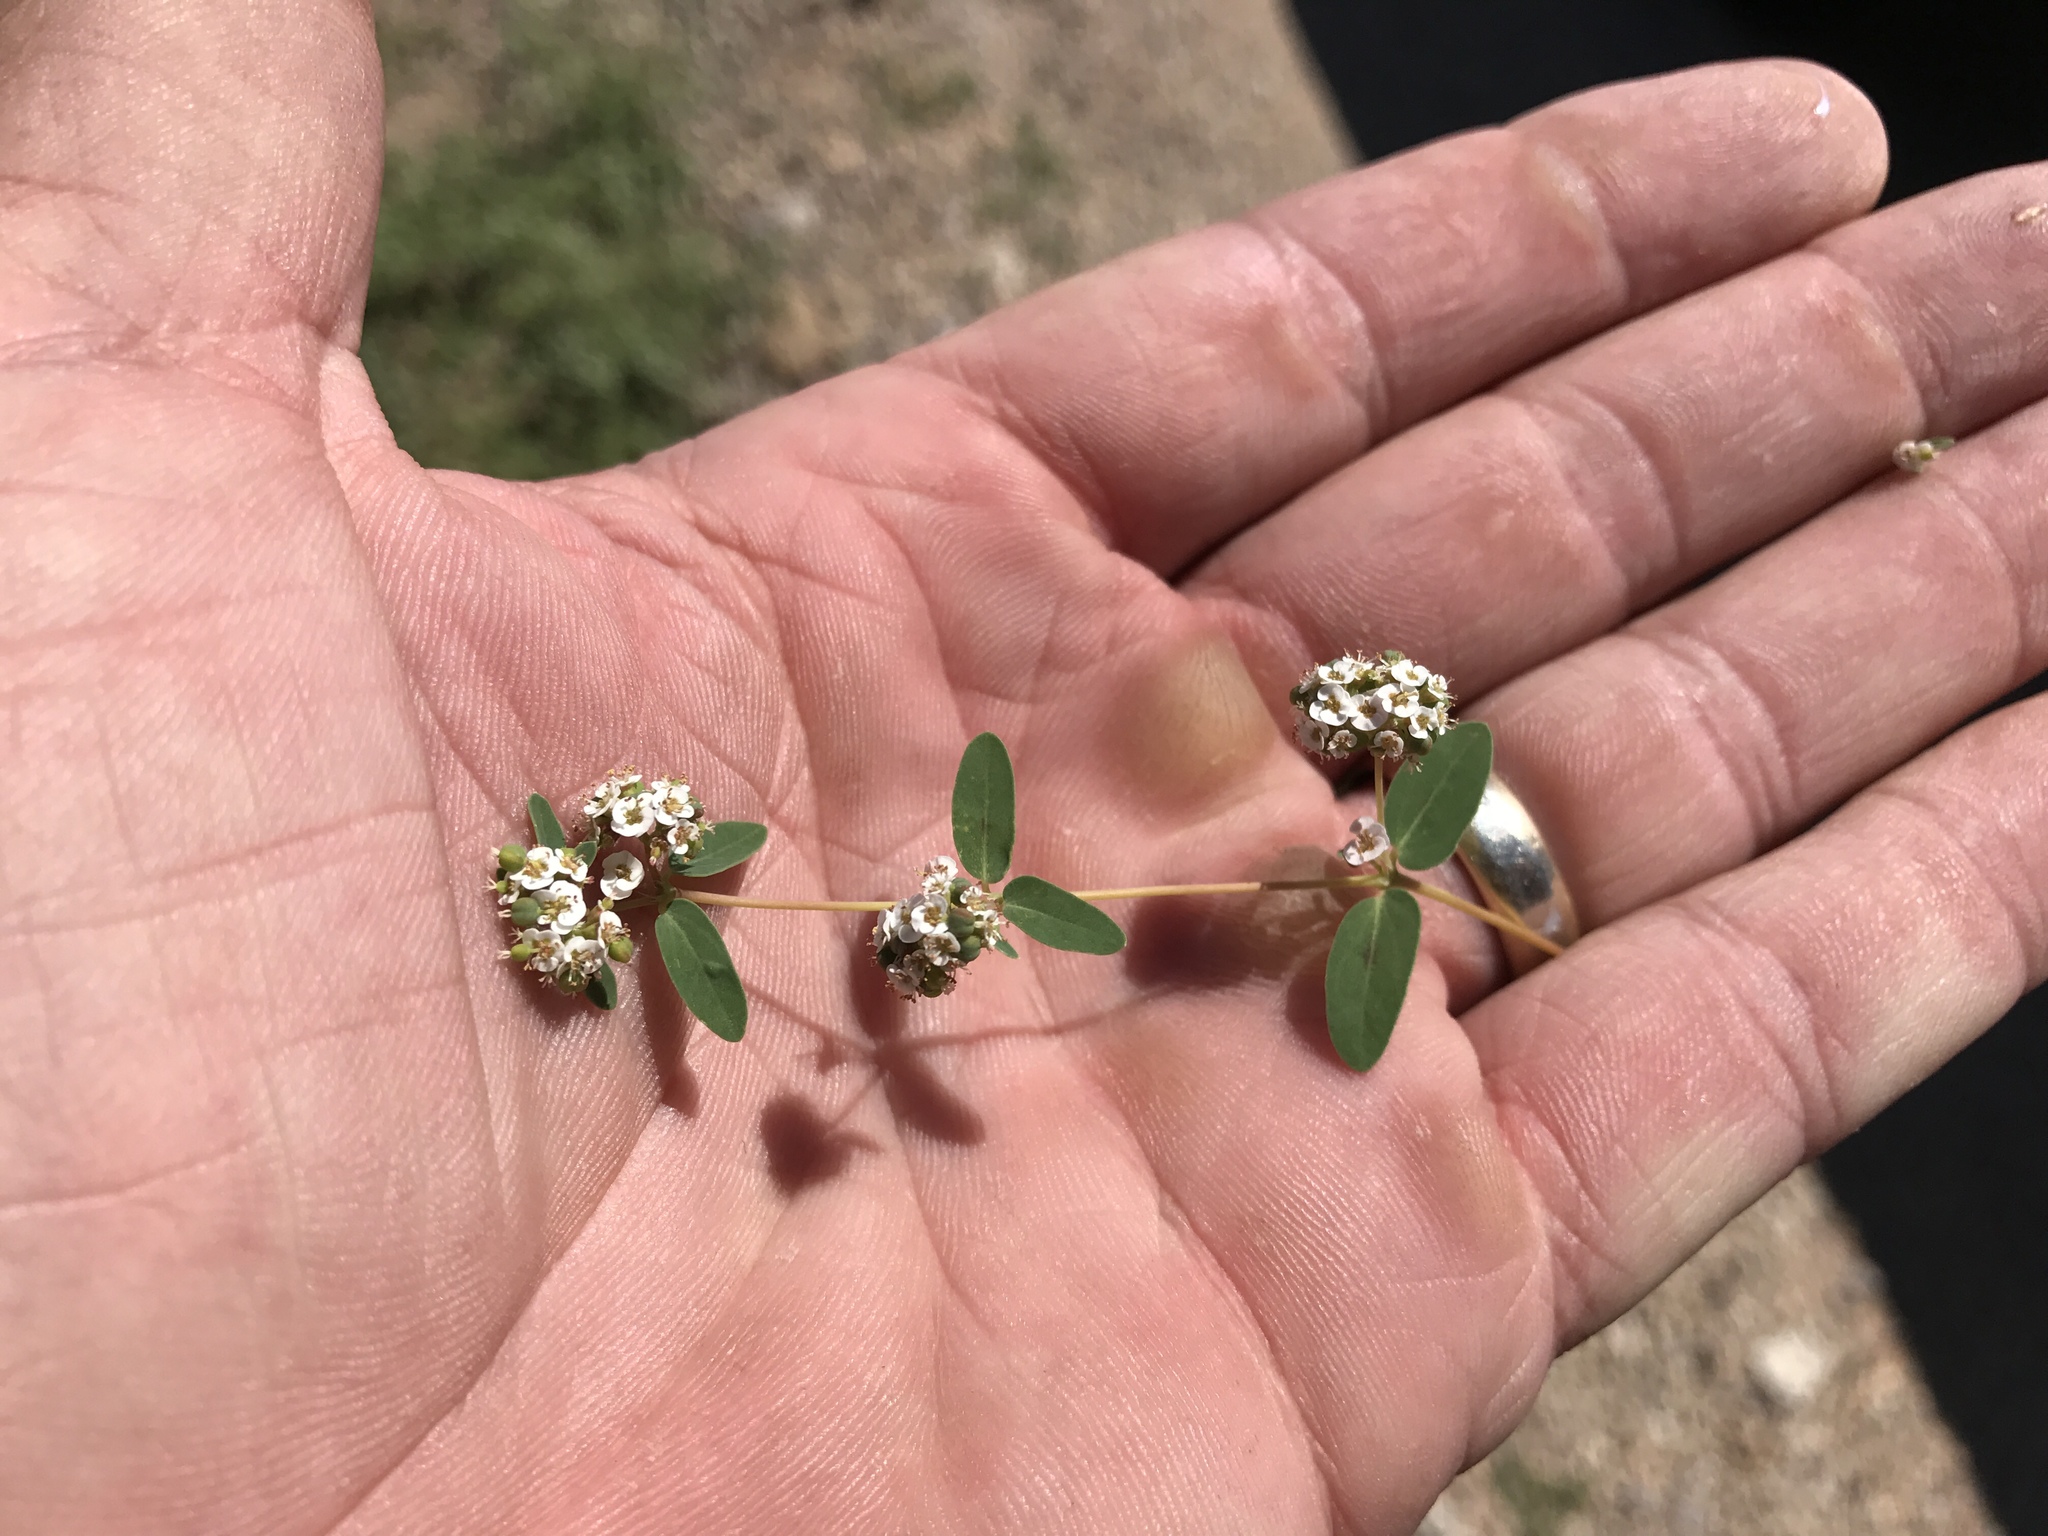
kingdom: Plantae
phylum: Tracheophyta
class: Magnoliopsida
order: Malpighiales
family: Euphorbiaceae
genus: Euphorbia
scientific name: Euphorbia capitellata
